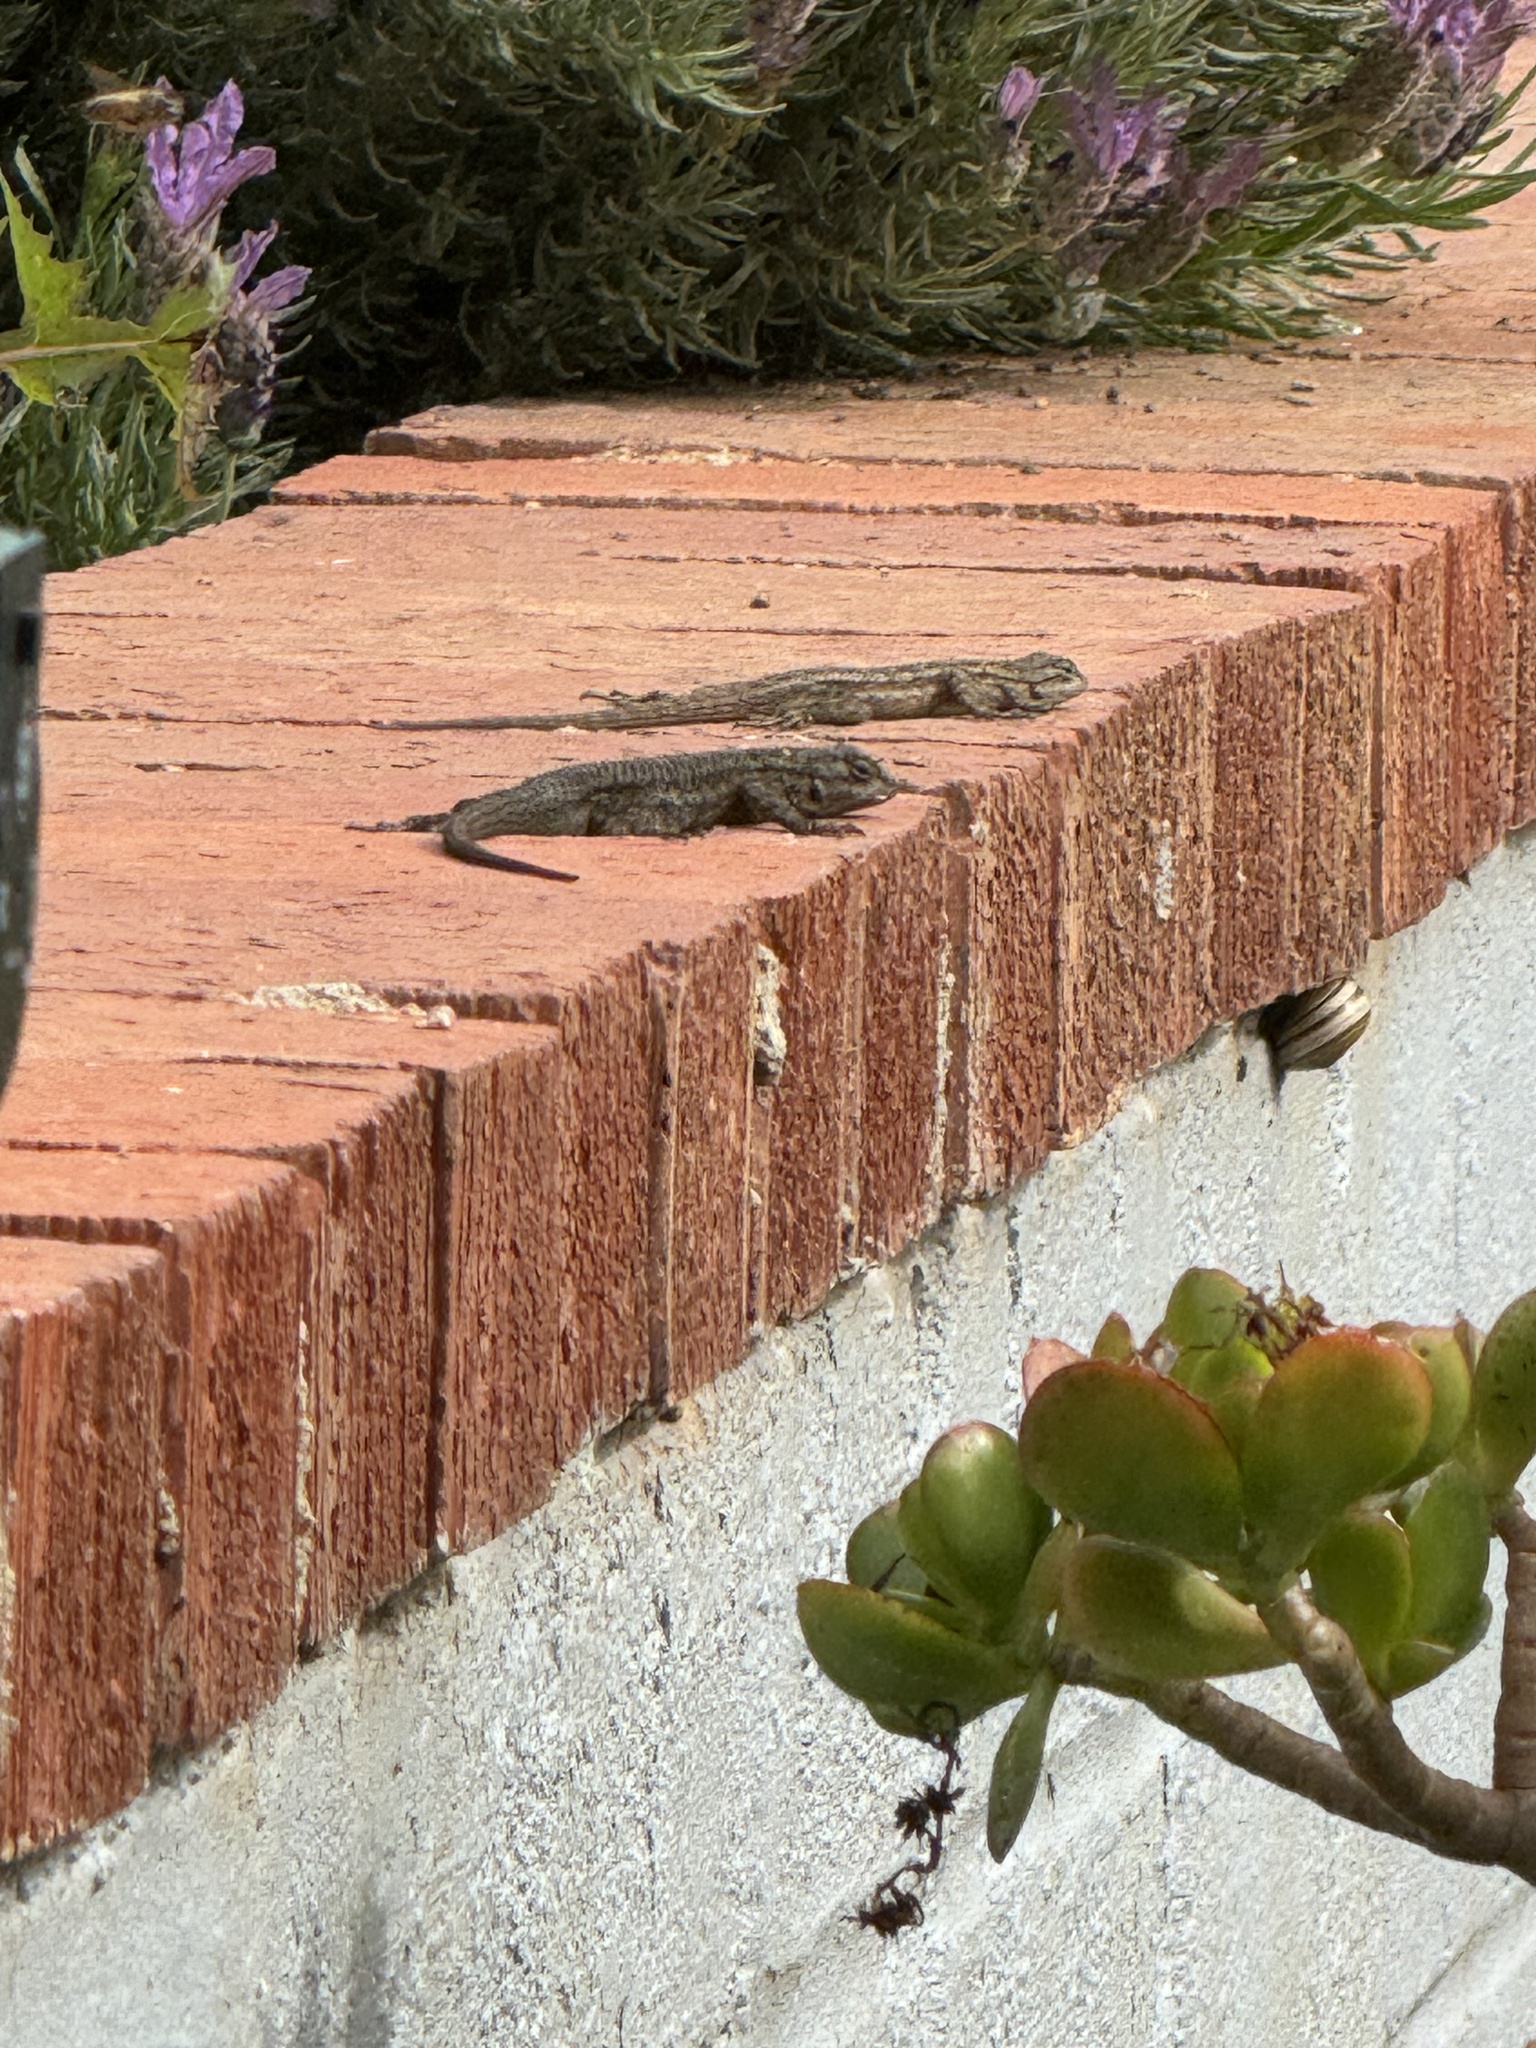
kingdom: Animalia
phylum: Chordata
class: Squamata
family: Phrynosomatidae
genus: Sceloporus
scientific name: Sceloporus occidentalis
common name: Western fence lizard
